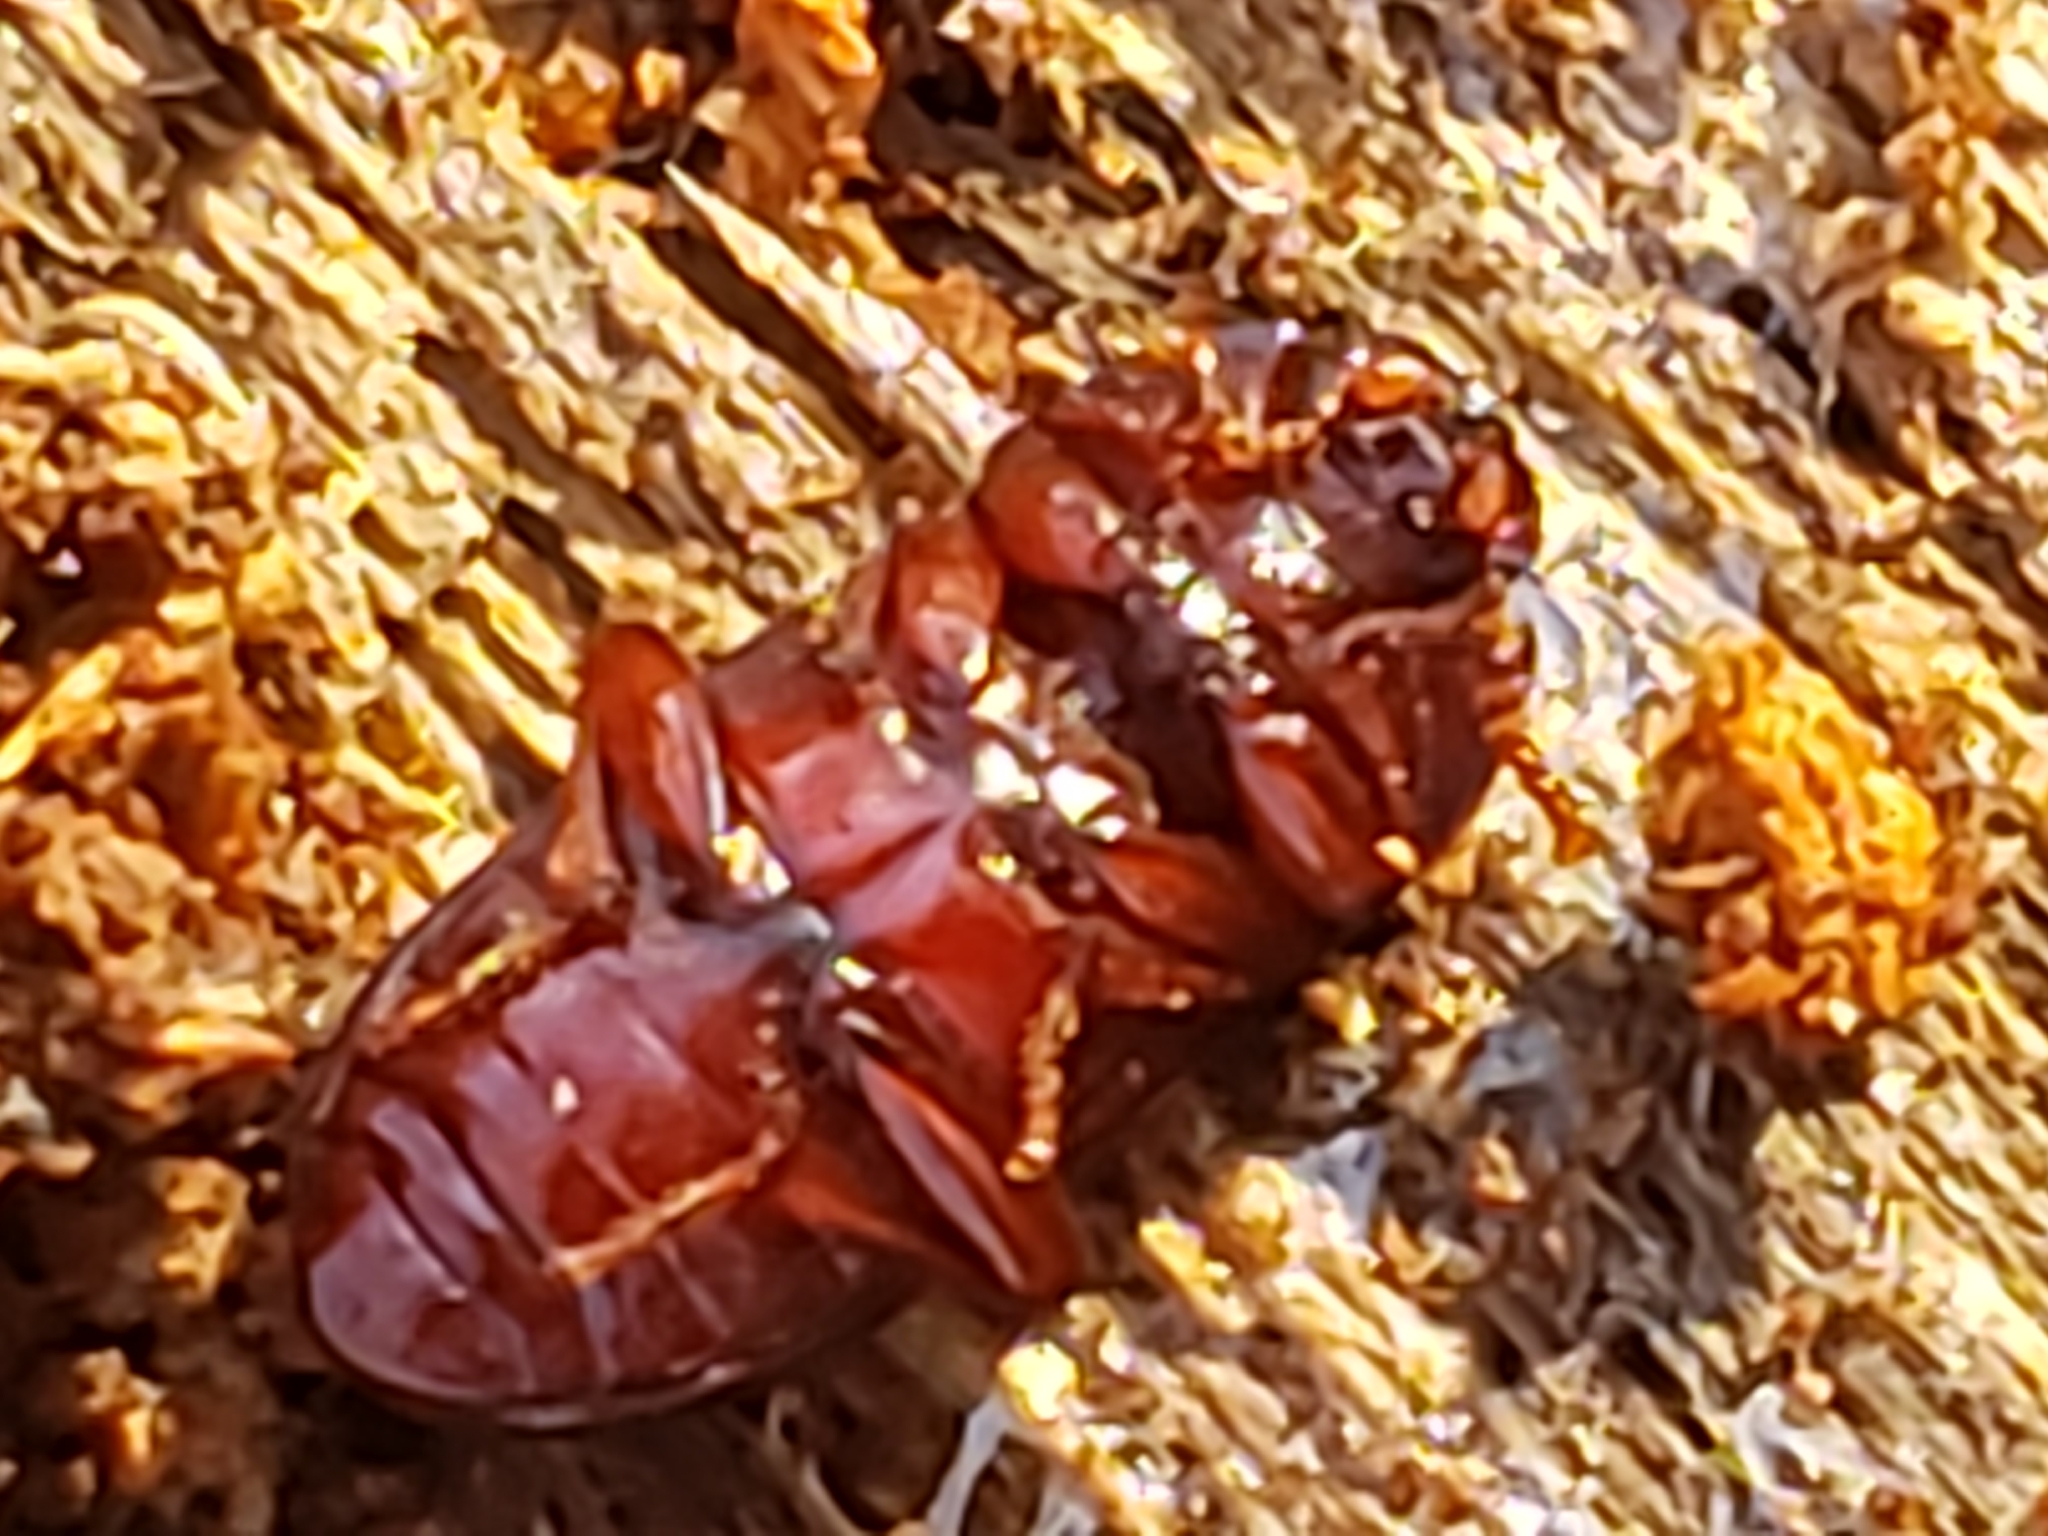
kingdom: Animalia
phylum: Arthropoda
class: Insecta
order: Coleoptera
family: Tenebrionidae
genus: Uloma
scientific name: Uloma imberbis
